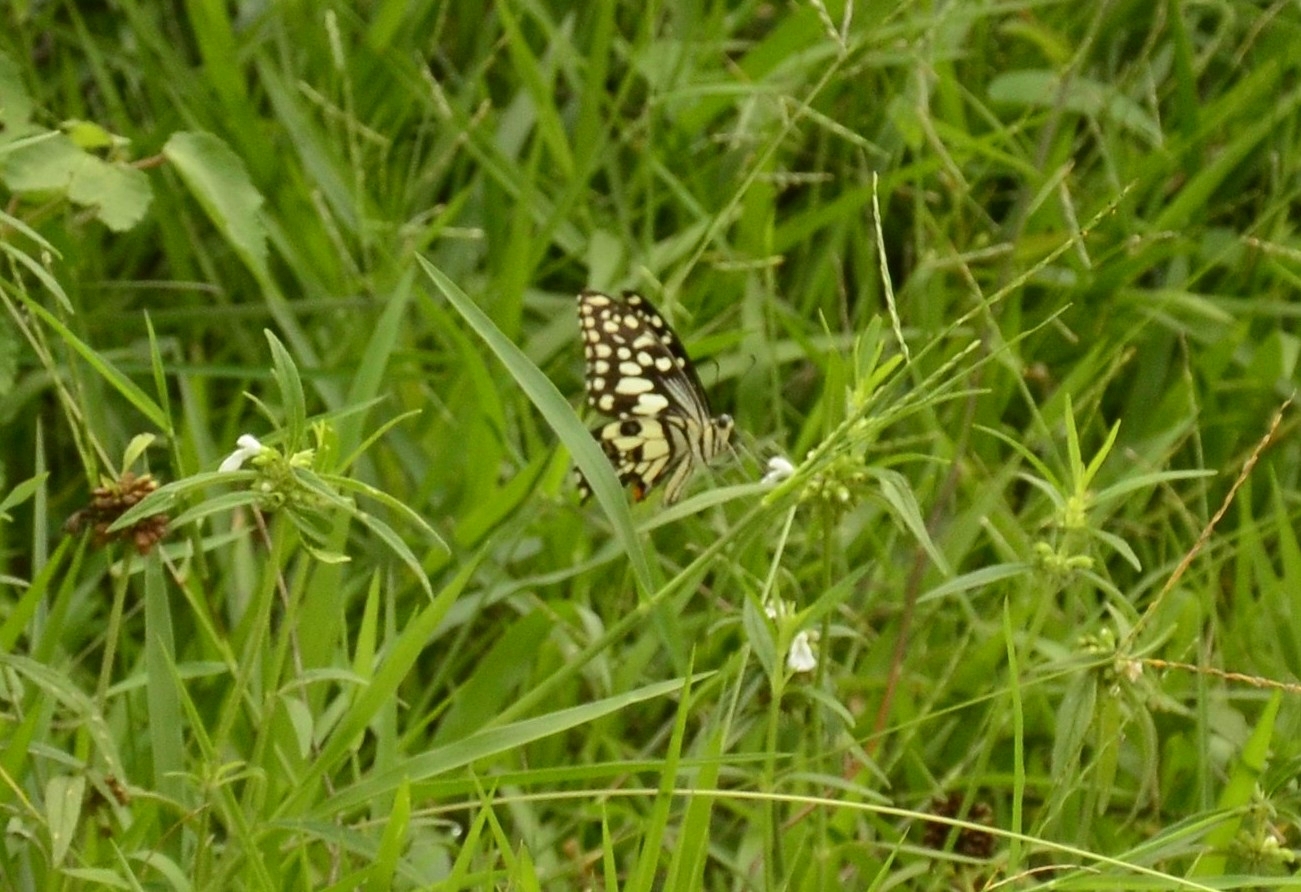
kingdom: Animalia
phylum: Arthropoda
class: Insecta
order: Lepidoptera
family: Papilionidae
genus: Papilio
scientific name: Papilio demoleus
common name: Lime butterfly
